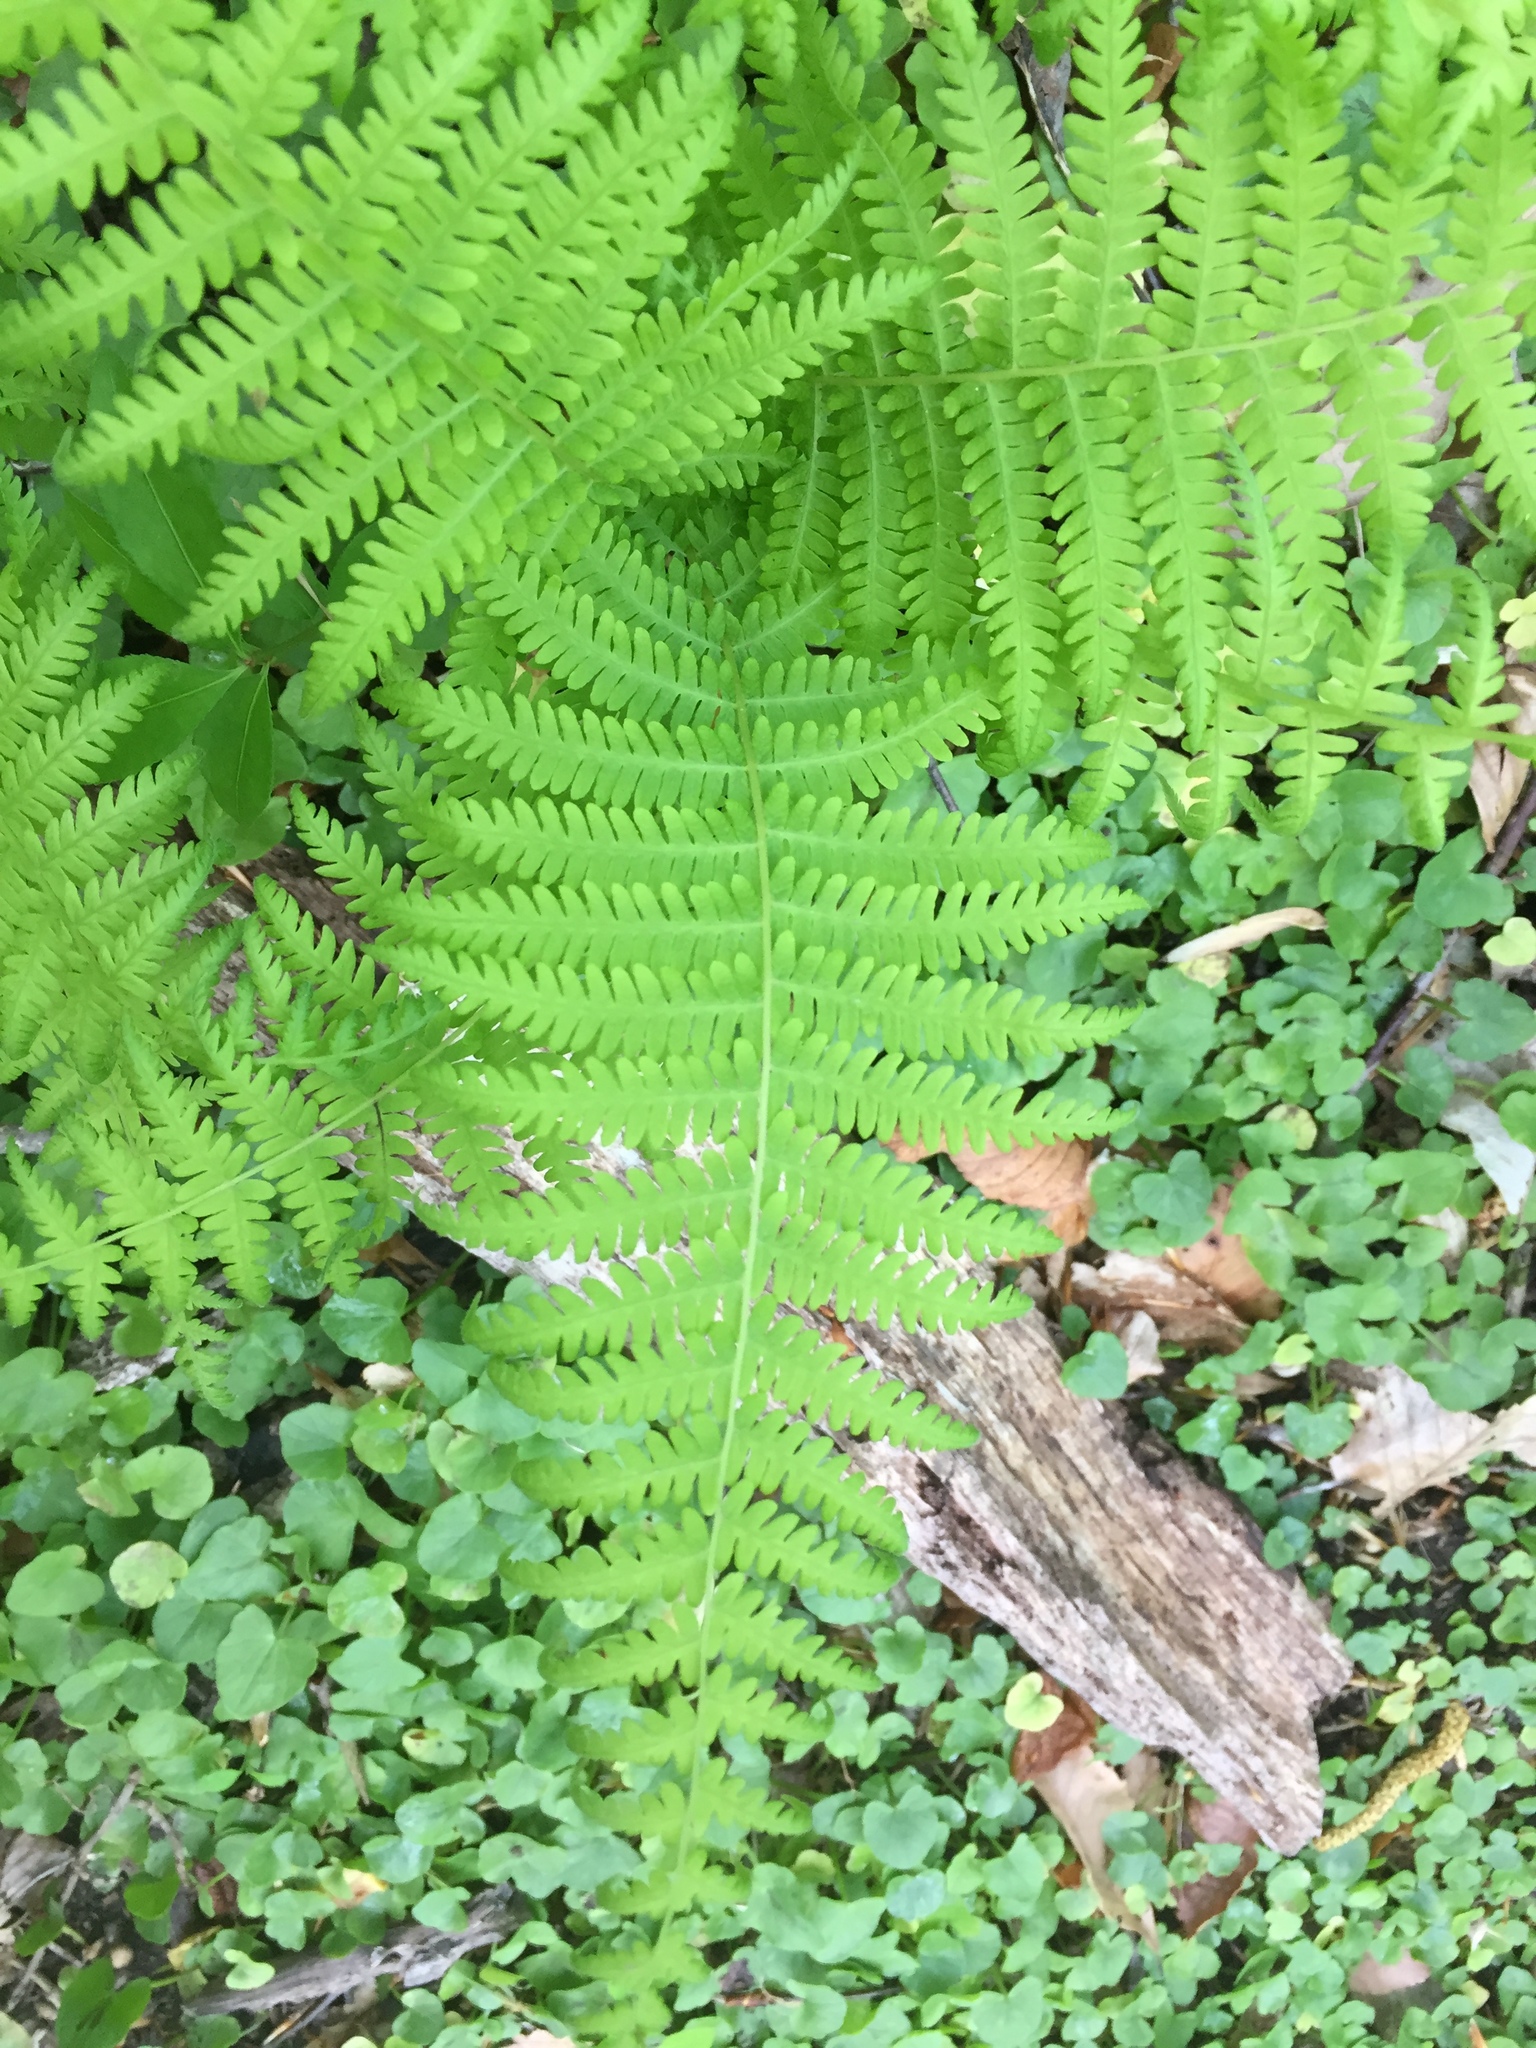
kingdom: Plantae
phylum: Tracheophyta
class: Polypodiopsida
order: Polypodiales
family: Thelypteridaceae
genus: Amauropelta
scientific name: Amauropelta noveboracensis
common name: New york fern
